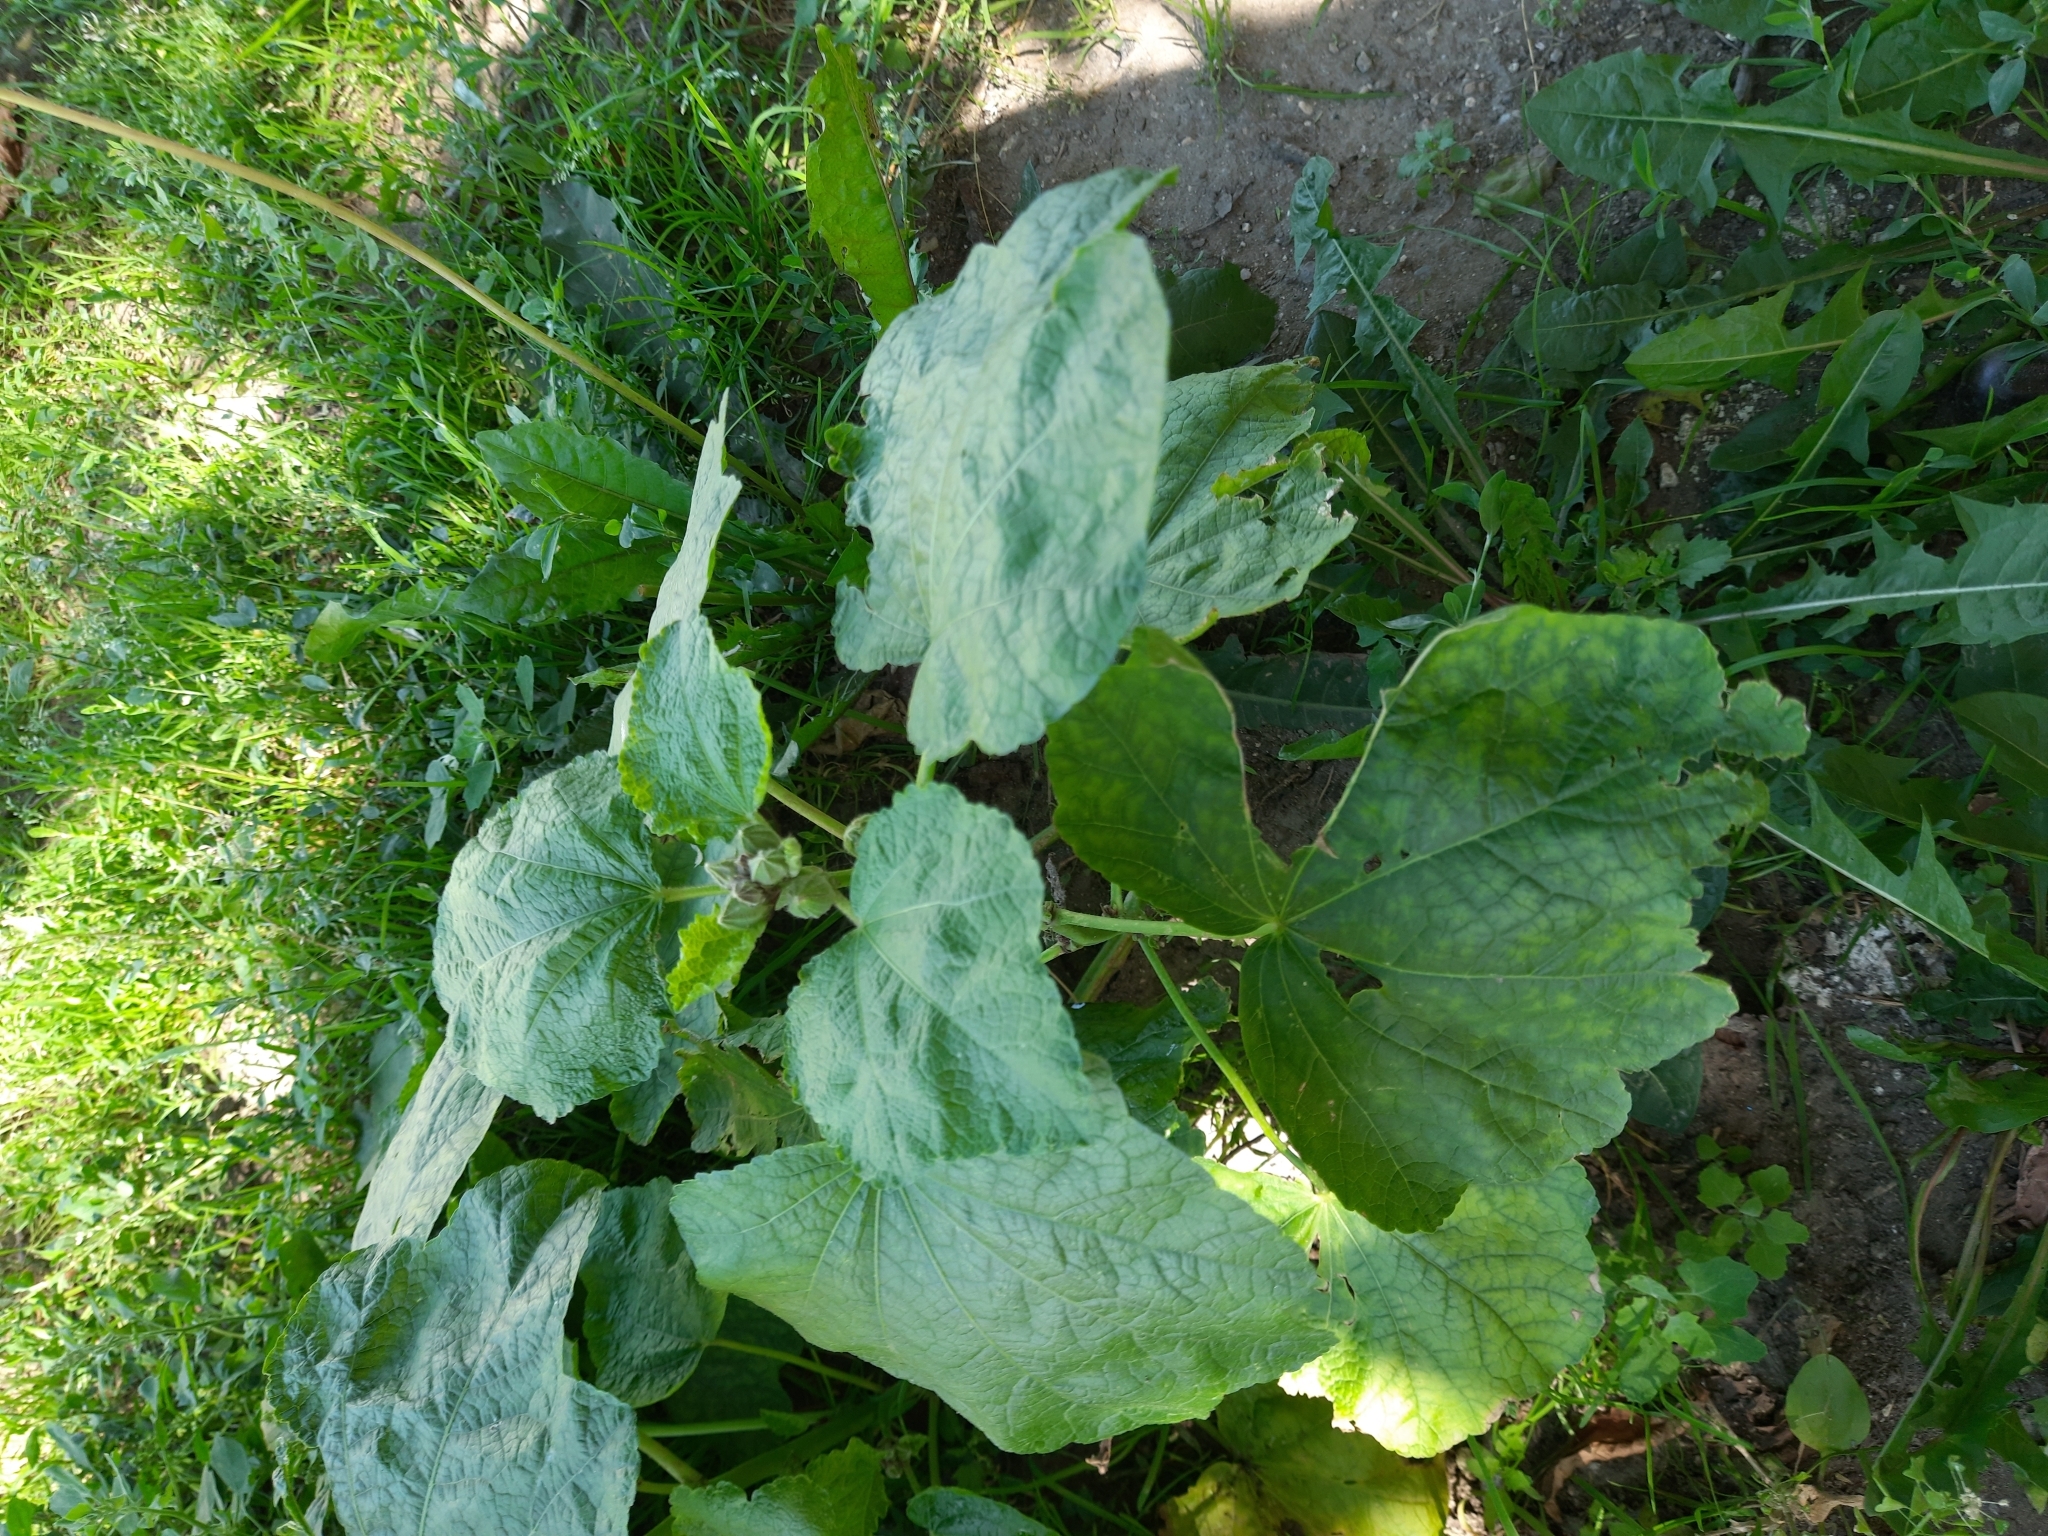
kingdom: Plantae
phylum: Tracheophyta
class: Magnoliopsida
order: Malvales
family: Malvaceae
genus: Alcea
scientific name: Alcea rugosa
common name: Russian hollyhock
